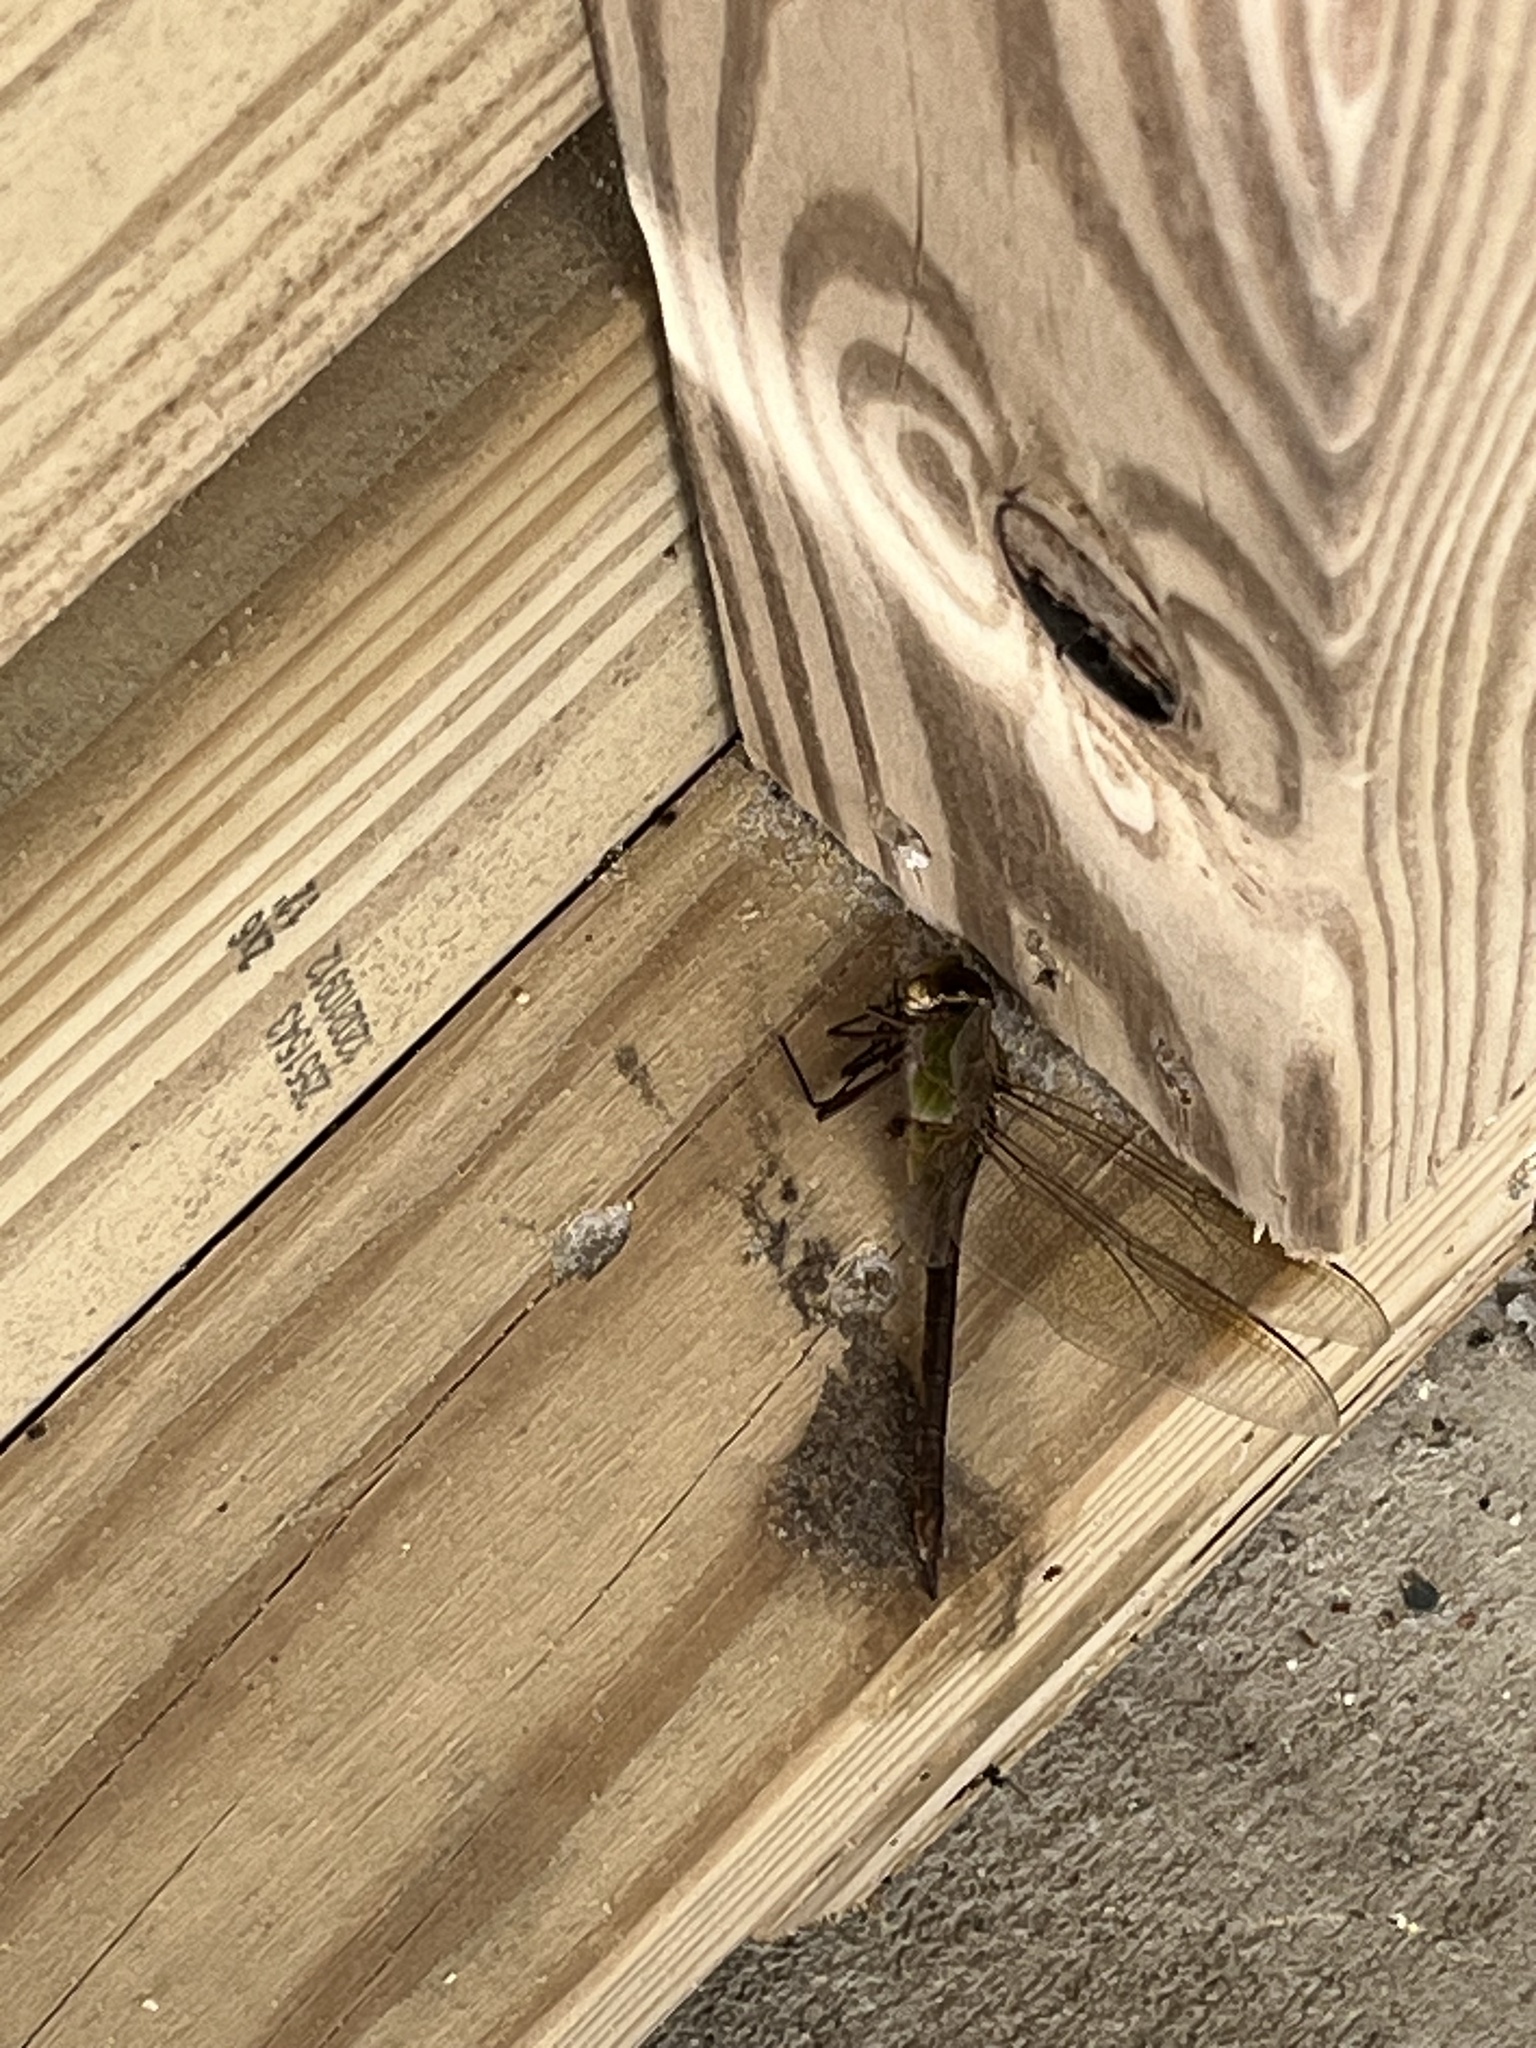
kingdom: Animalia
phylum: Arthropoda
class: Insecta
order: Odonata
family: Aeshnidae
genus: Anax
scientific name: Anax junius
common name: Common green darner
